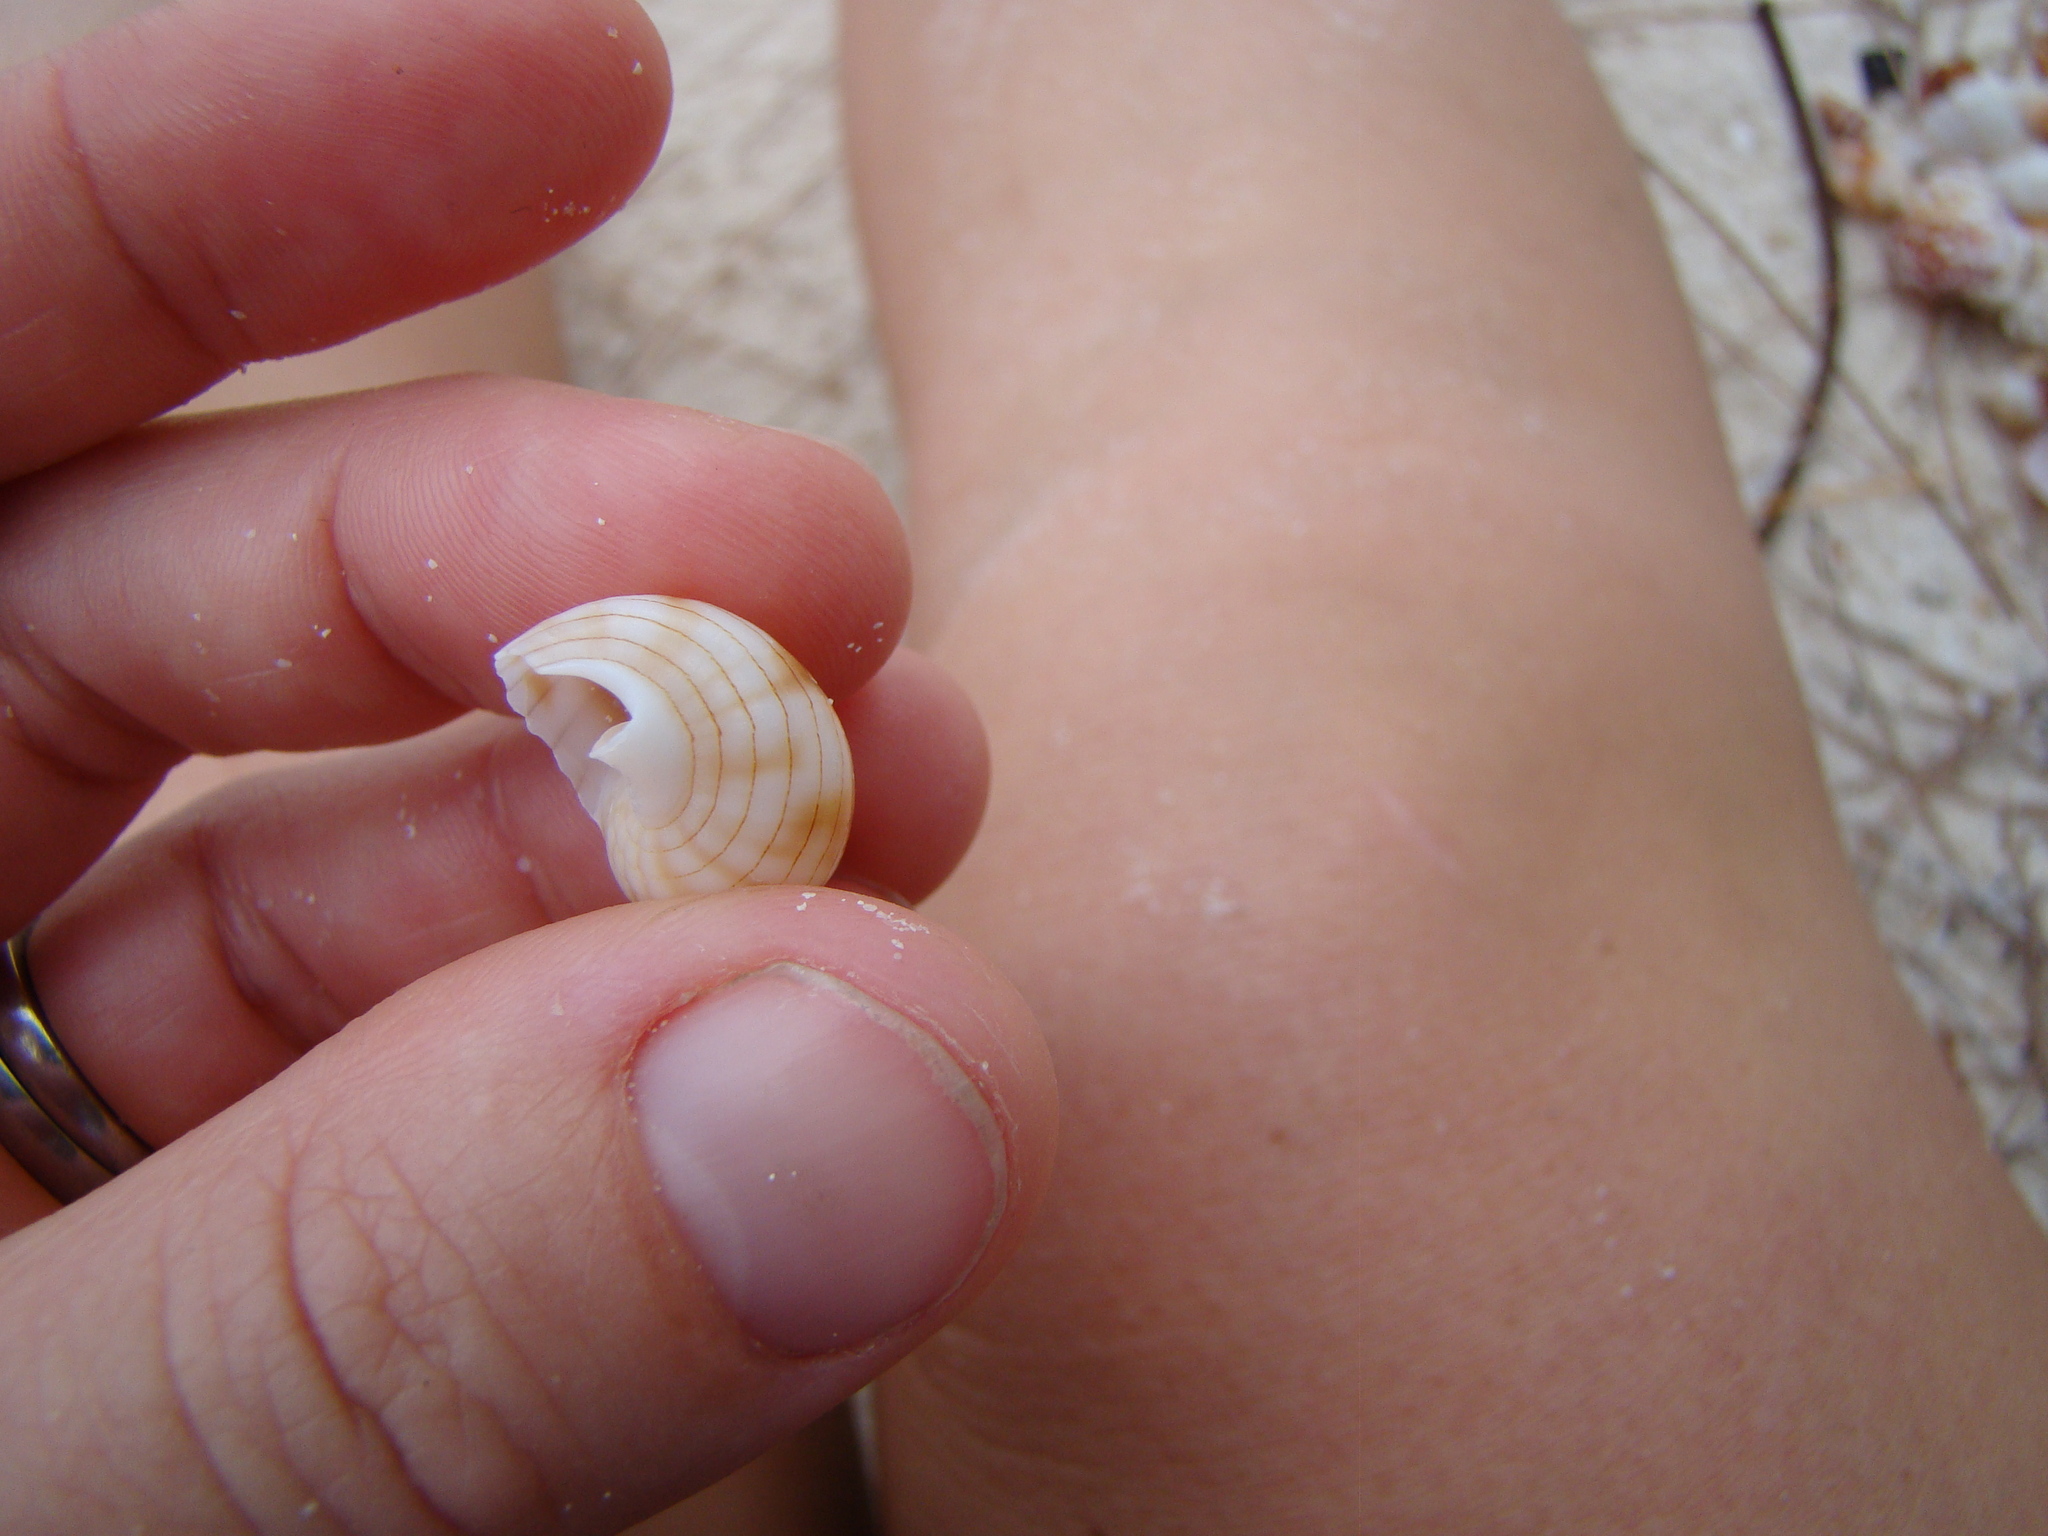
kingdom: Animalia
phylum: Mollusca
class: Gastropoda
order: Neogastropoda
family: Nassariidae
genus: Nassarius
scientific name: Nassarius glans
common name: Glans nassa
